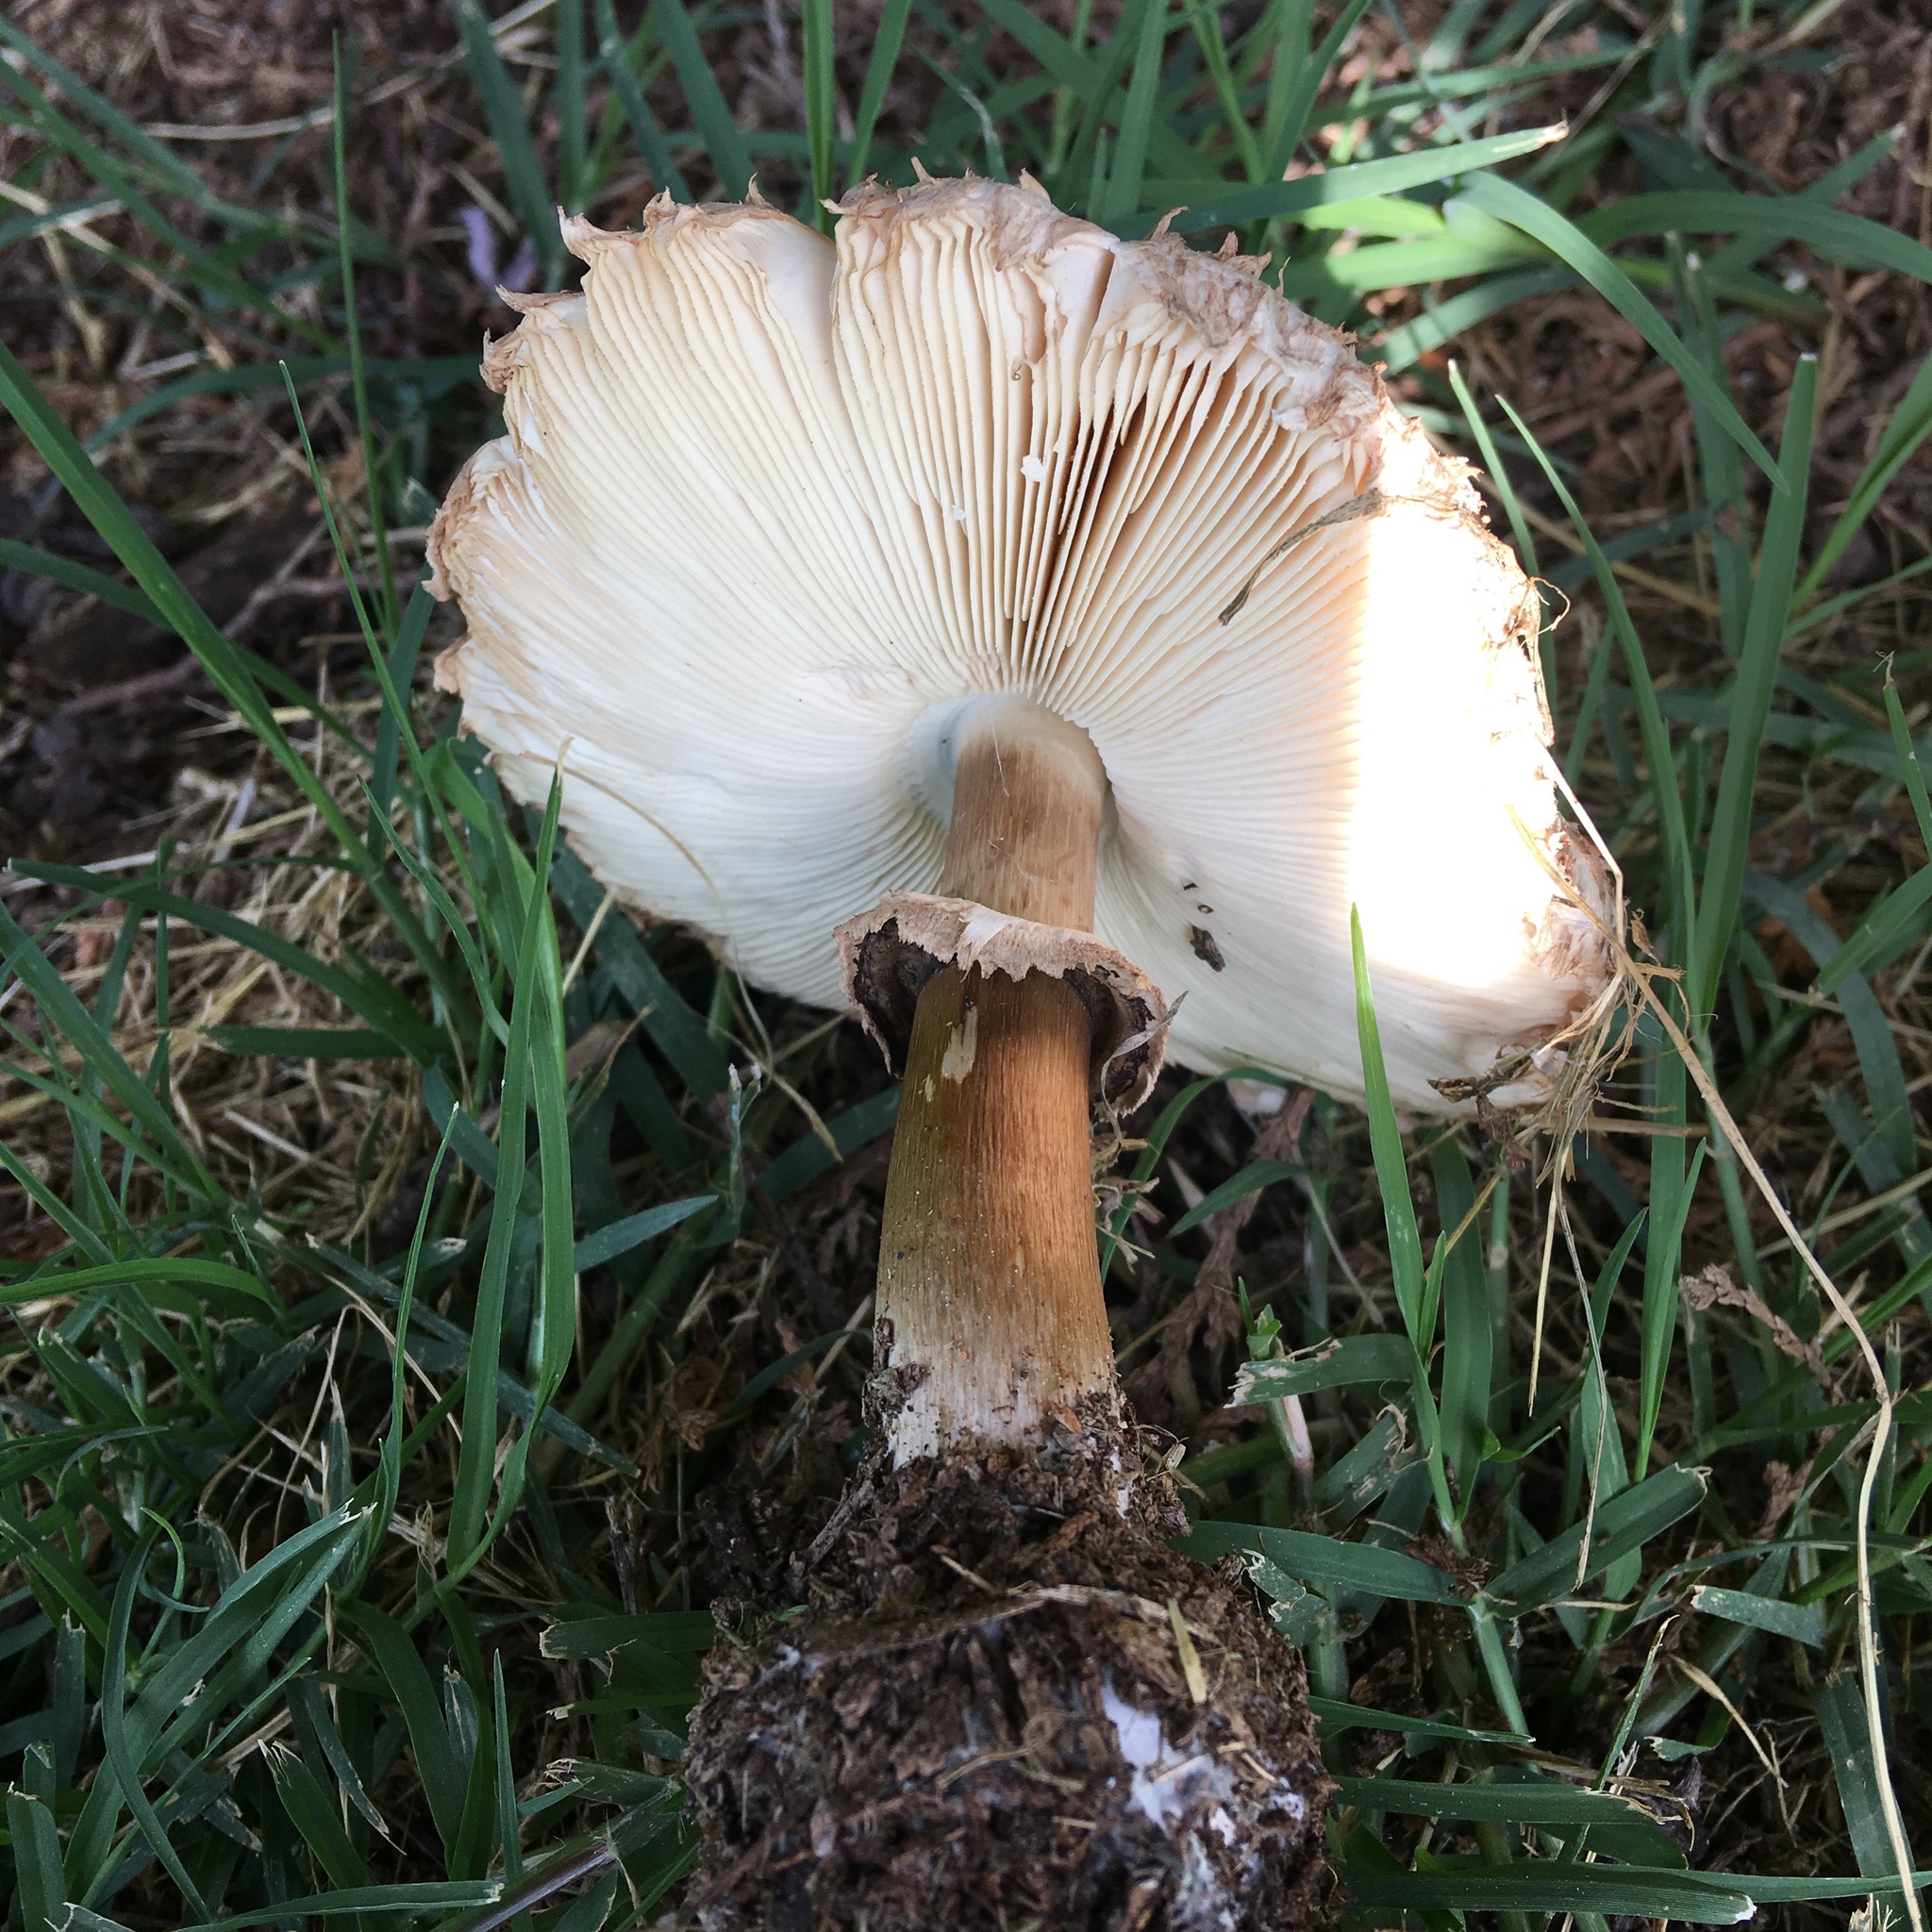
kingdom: Fungi
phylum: Basidiomycota
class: Agaricomycetes
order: Agaricales
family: Agaricaceae
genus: Chlorophyllum
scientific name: Chlorophyllum brunneum
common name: Brown parasol
